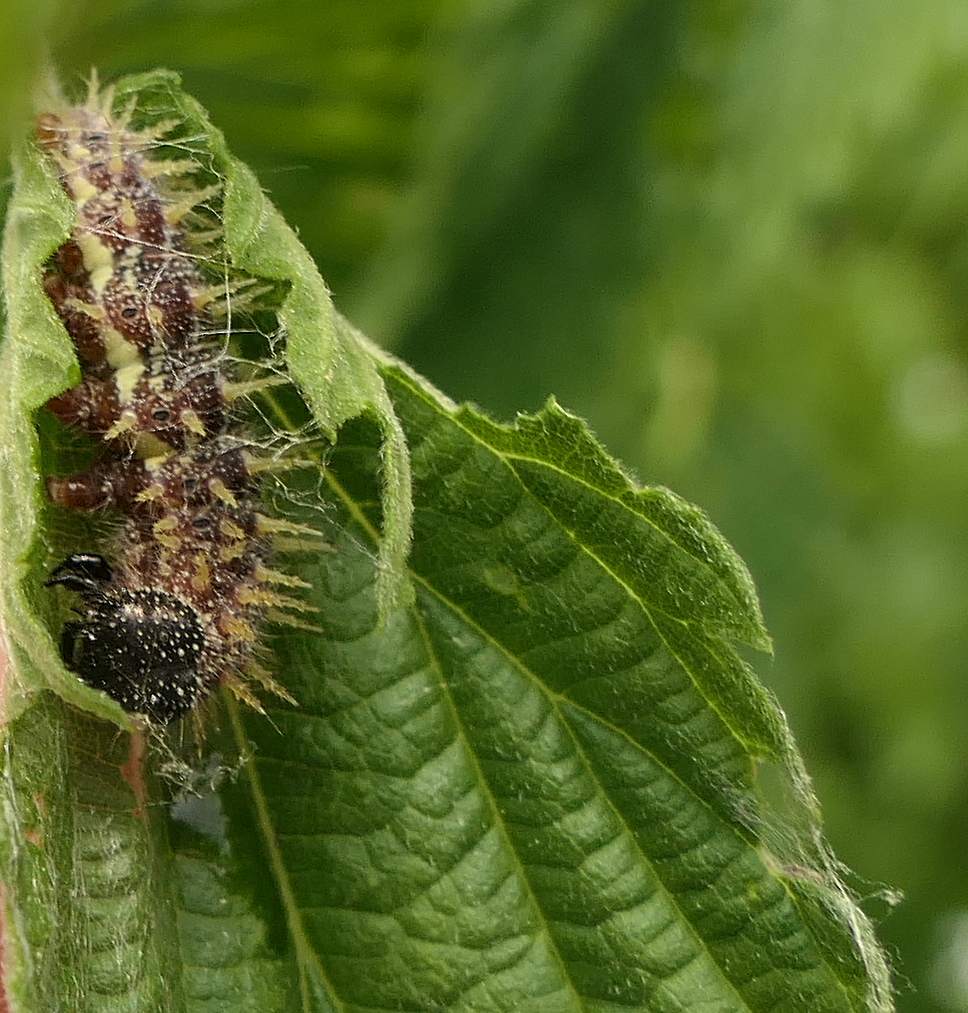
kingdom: Animalia
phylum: Arthropoda
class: Insecta
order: Lepidoptera
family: Nymphalidae
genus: Vanessa
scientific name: Vanessa atalanta
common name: Red admiral
